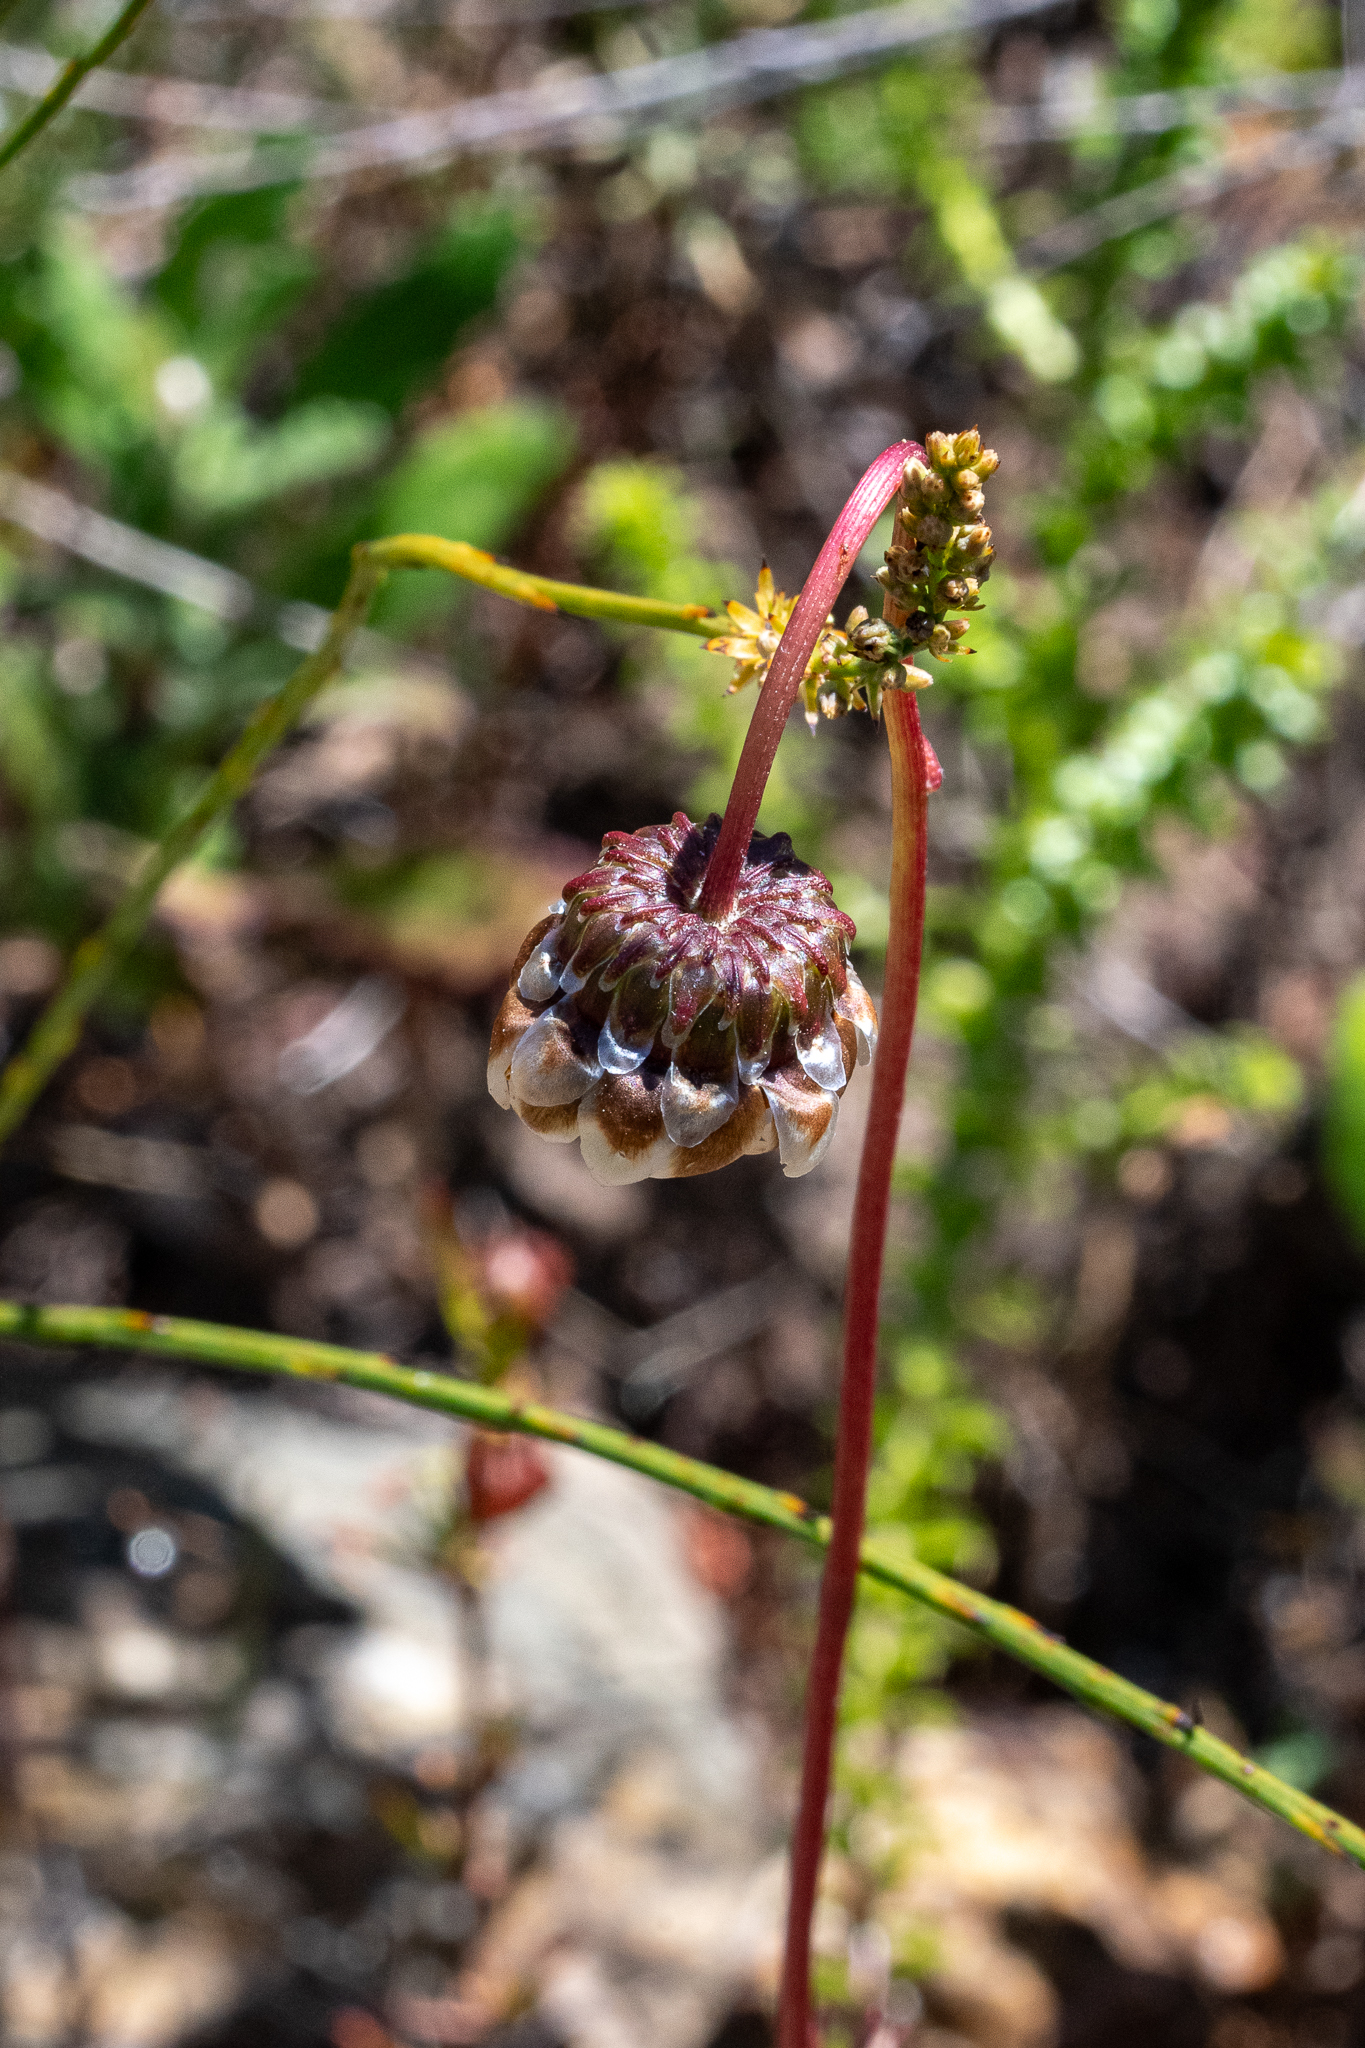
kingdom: Plantae
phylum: Tracheophyta
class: Magnoliopsida
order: Asterales
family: Asteraceae
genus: Ursinia
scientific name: Ursinia paleacea
